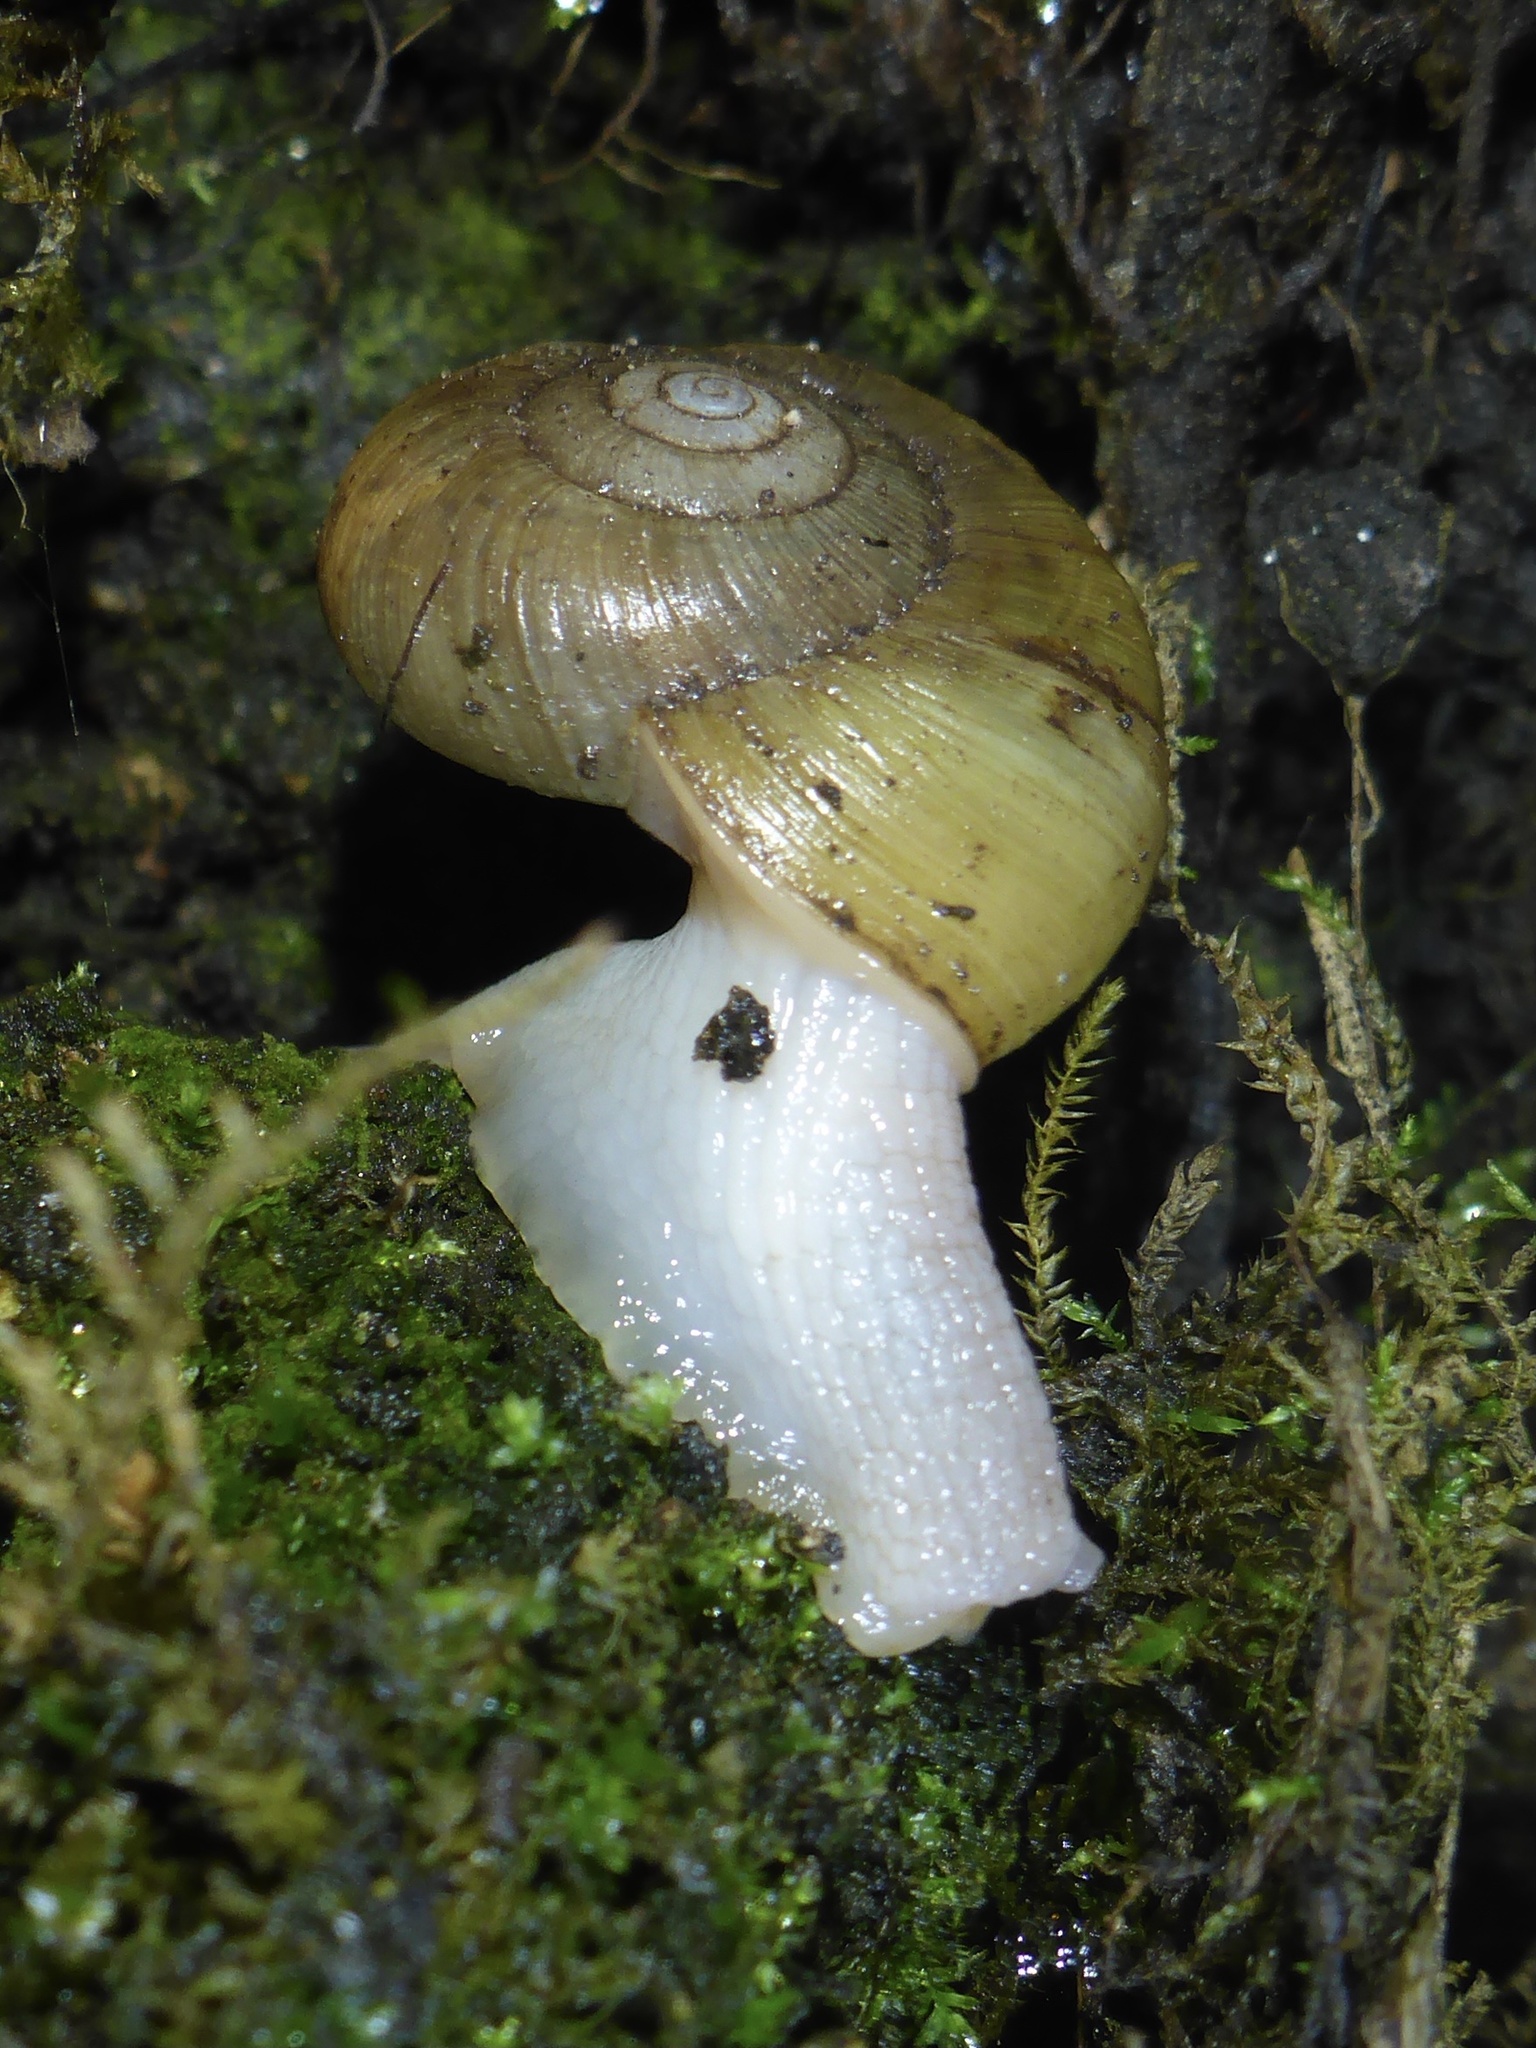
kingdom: Animalia
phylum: Mollusca
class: Gastropoda
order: Stylommatophora
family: Haplotrematidae
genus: Haplotrema
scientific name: Haplotrema minimum
